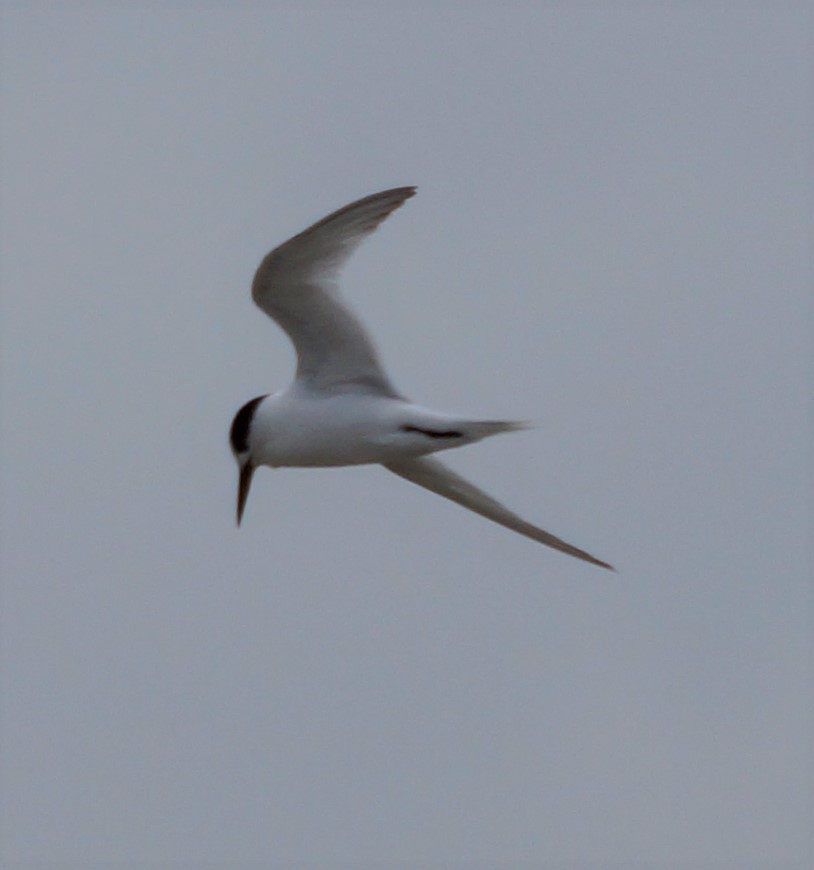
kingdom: Animalia
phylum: Chordata
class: Aves
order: Charadriiformes
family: Laridae
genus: Sternula
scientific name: Sternula nereis
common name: Fairy tern
